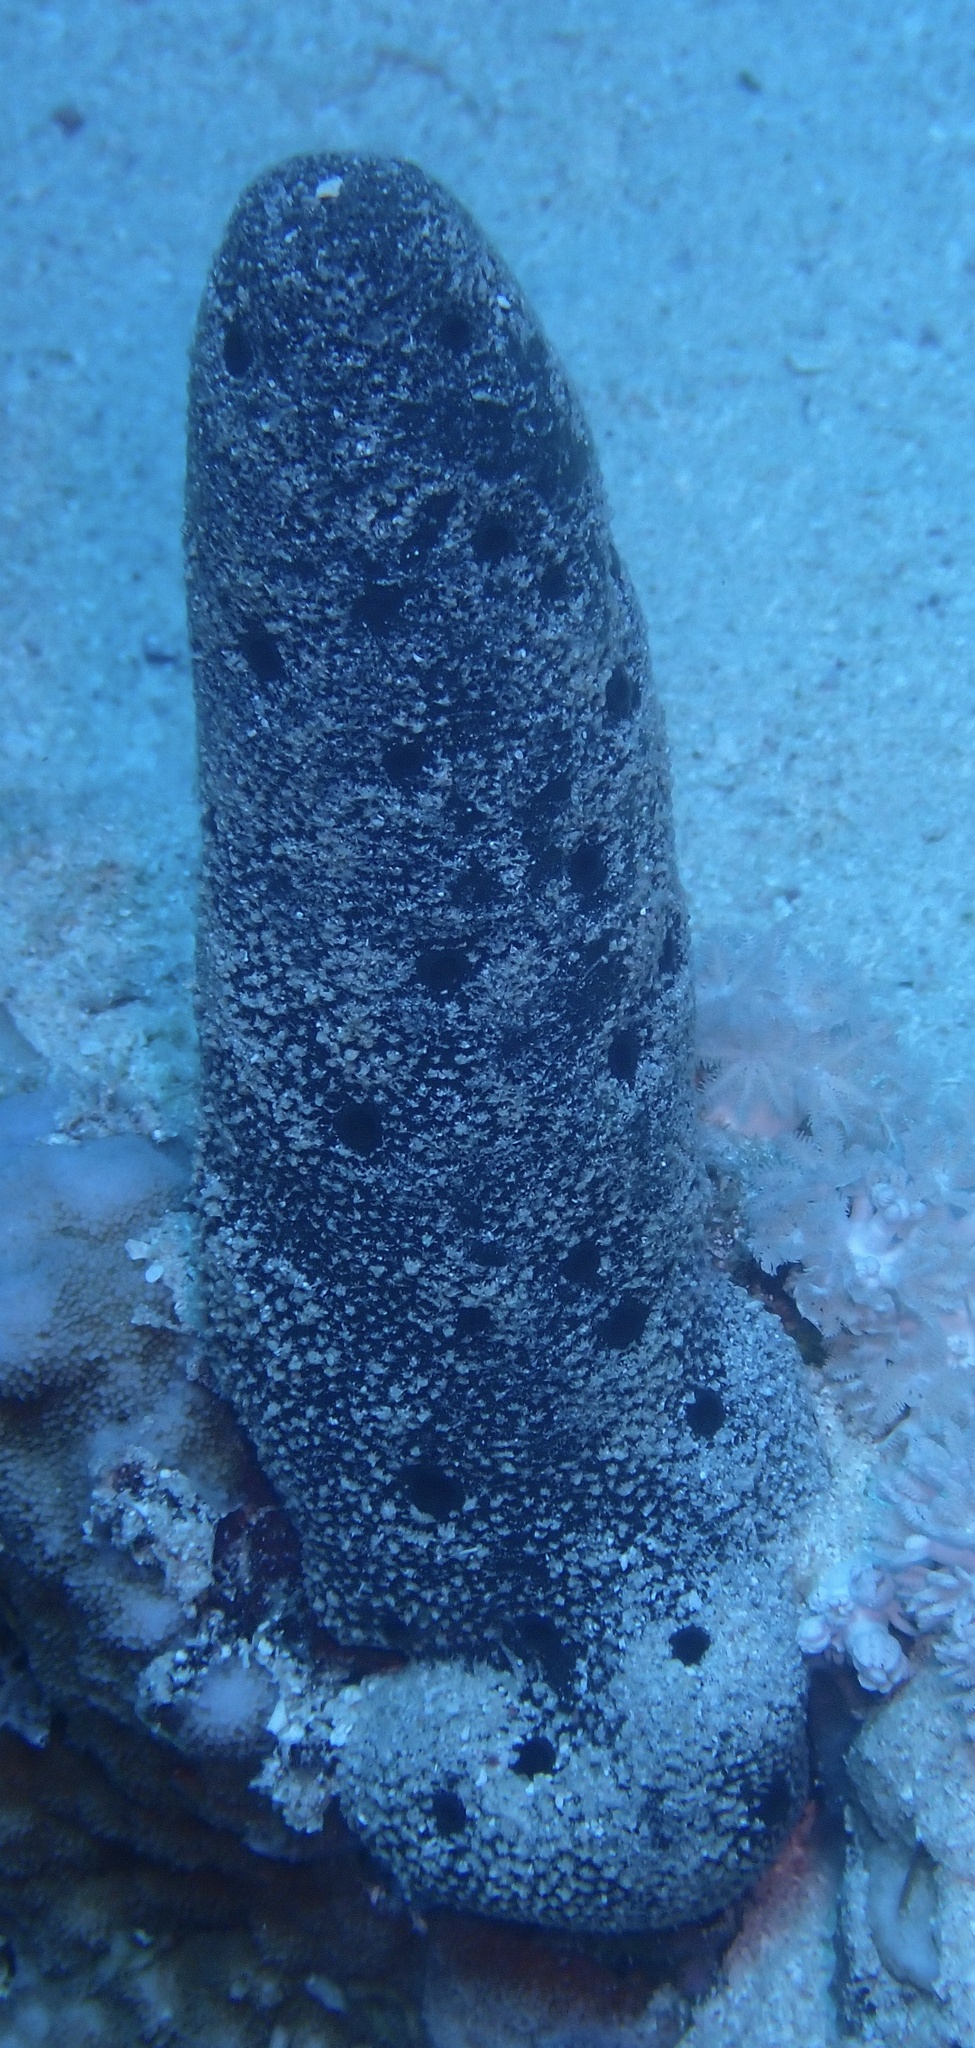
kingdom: Animalia
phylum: Porifera
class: Demospongiae
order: Dictyoceratida
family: Thorectidae
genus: Hyrtios
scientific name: Hyrtios erectus
